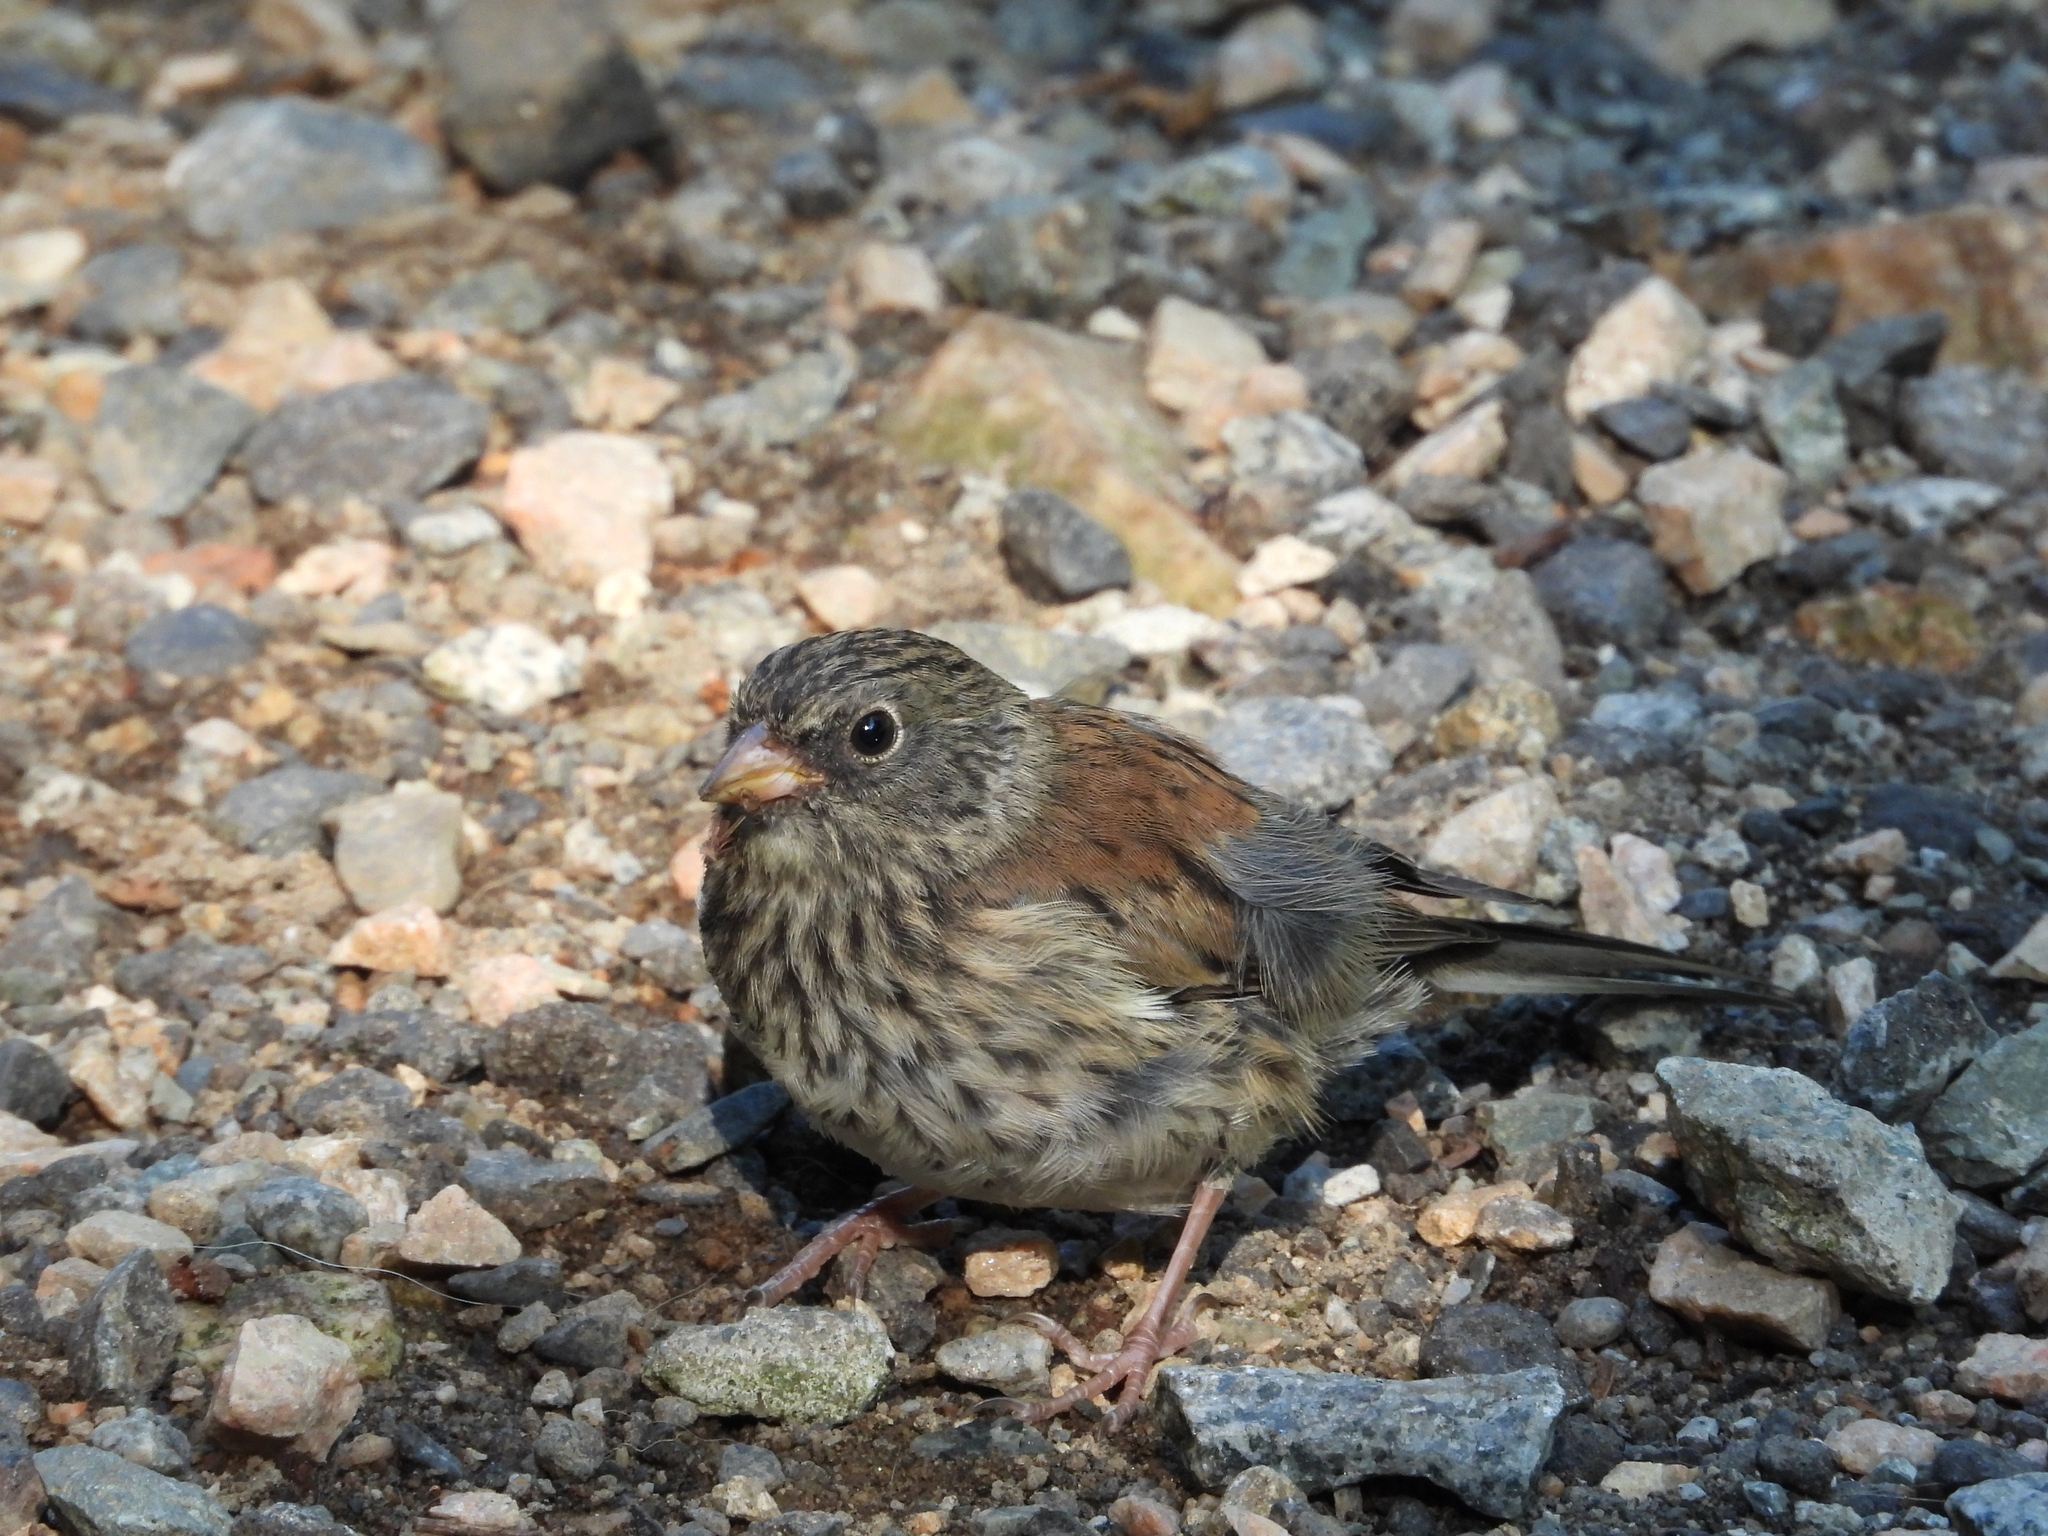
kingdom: Animalia
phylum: Chordata
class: Aves
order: Passeriformes
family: Passerellidae
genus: Junco
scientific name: Junco hyemalis
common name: Dark-eyed junco
